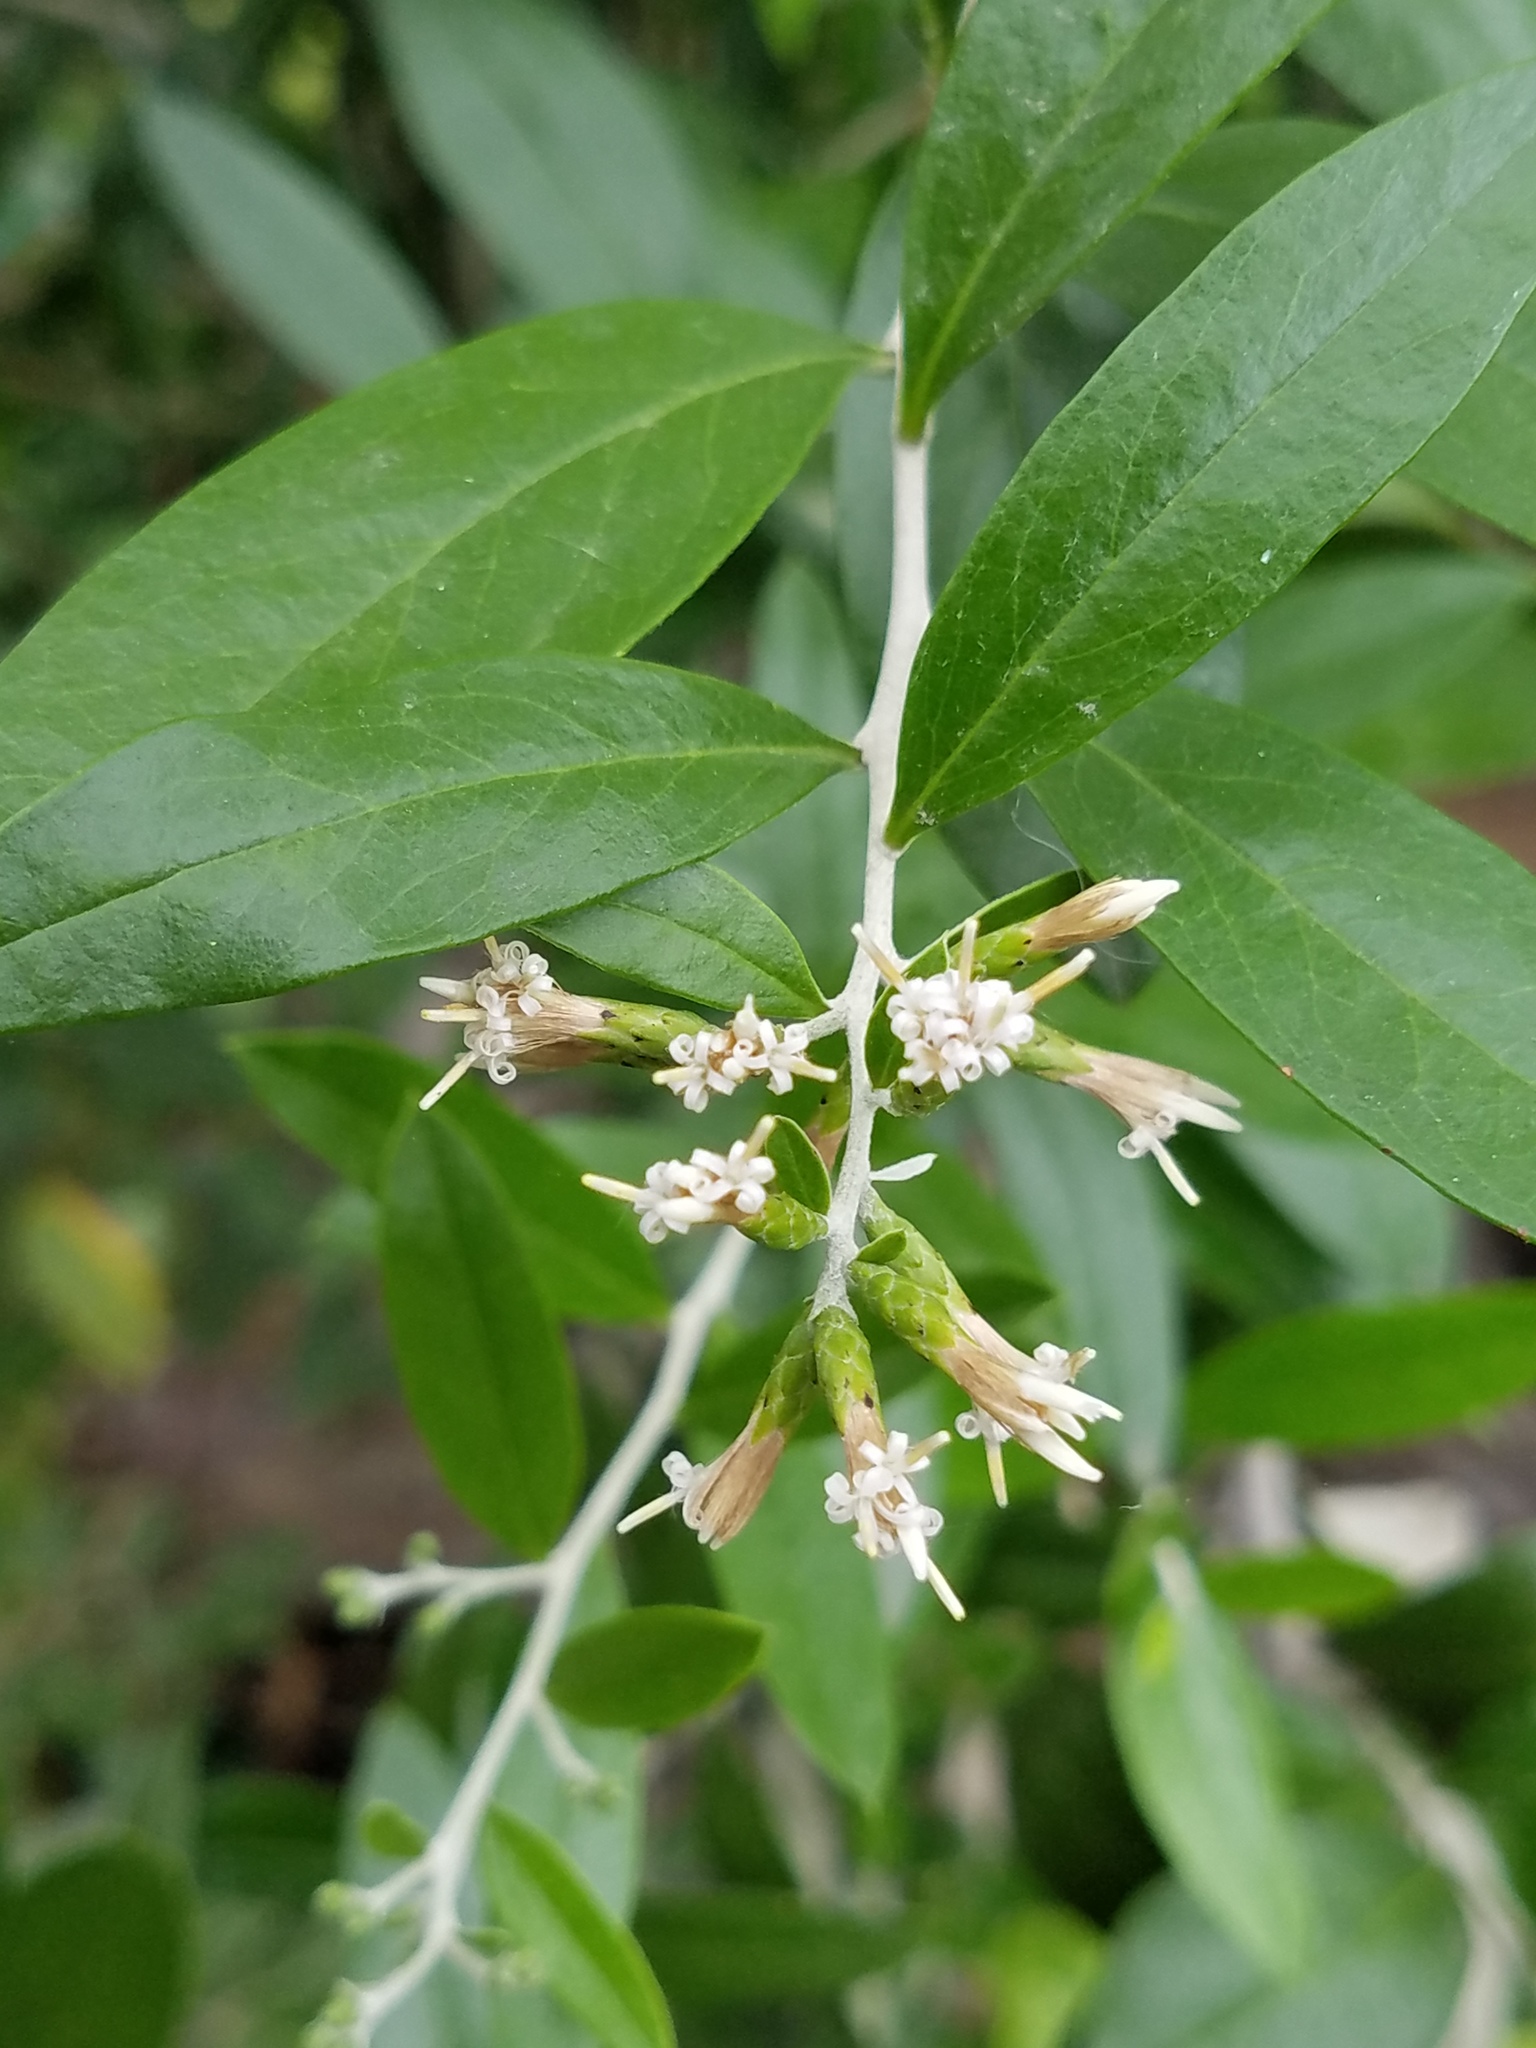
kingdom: Plantae
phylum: Tracheophyta
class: Magnoliopsida
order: Asterales
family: Asteraceae
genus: Nahuatlea
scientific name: Nahuatlea hypoleuca
